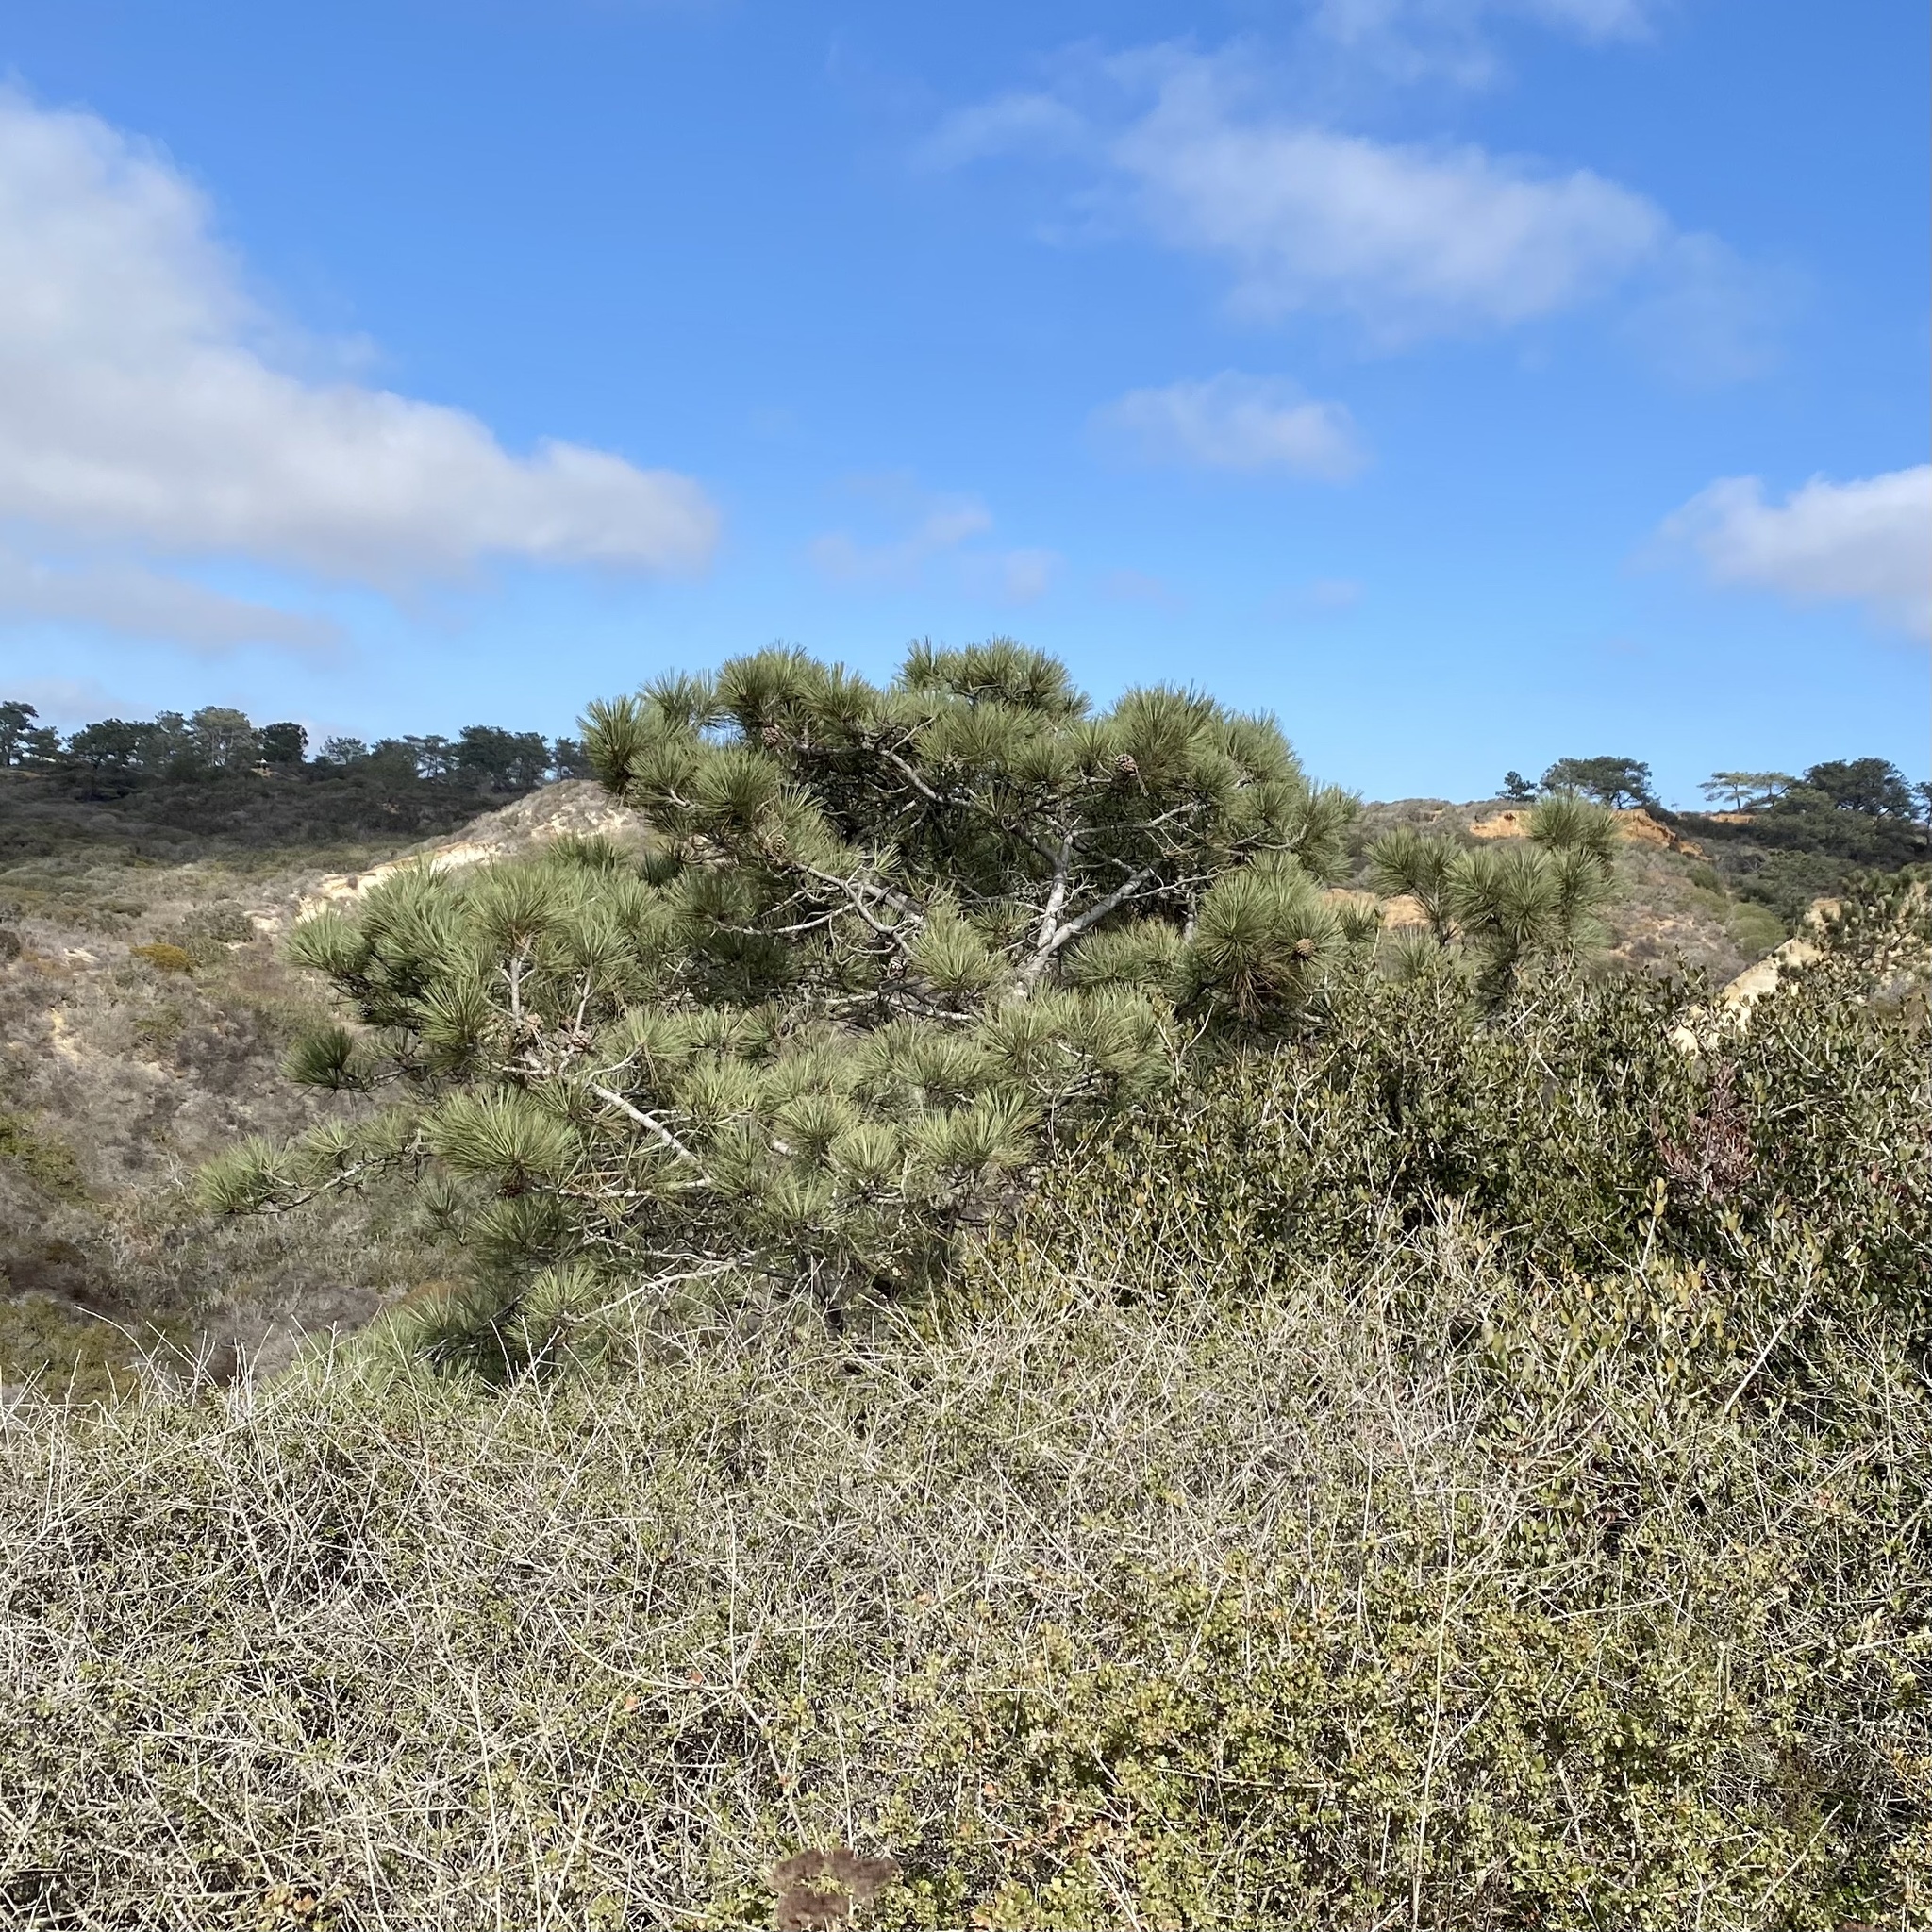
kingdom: Plantae
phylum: Tracheophyta
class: Pinopsida
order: Pinales
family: Pinaceae
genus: Pinus
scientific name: Pinus torreyana
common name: Torrey pine
